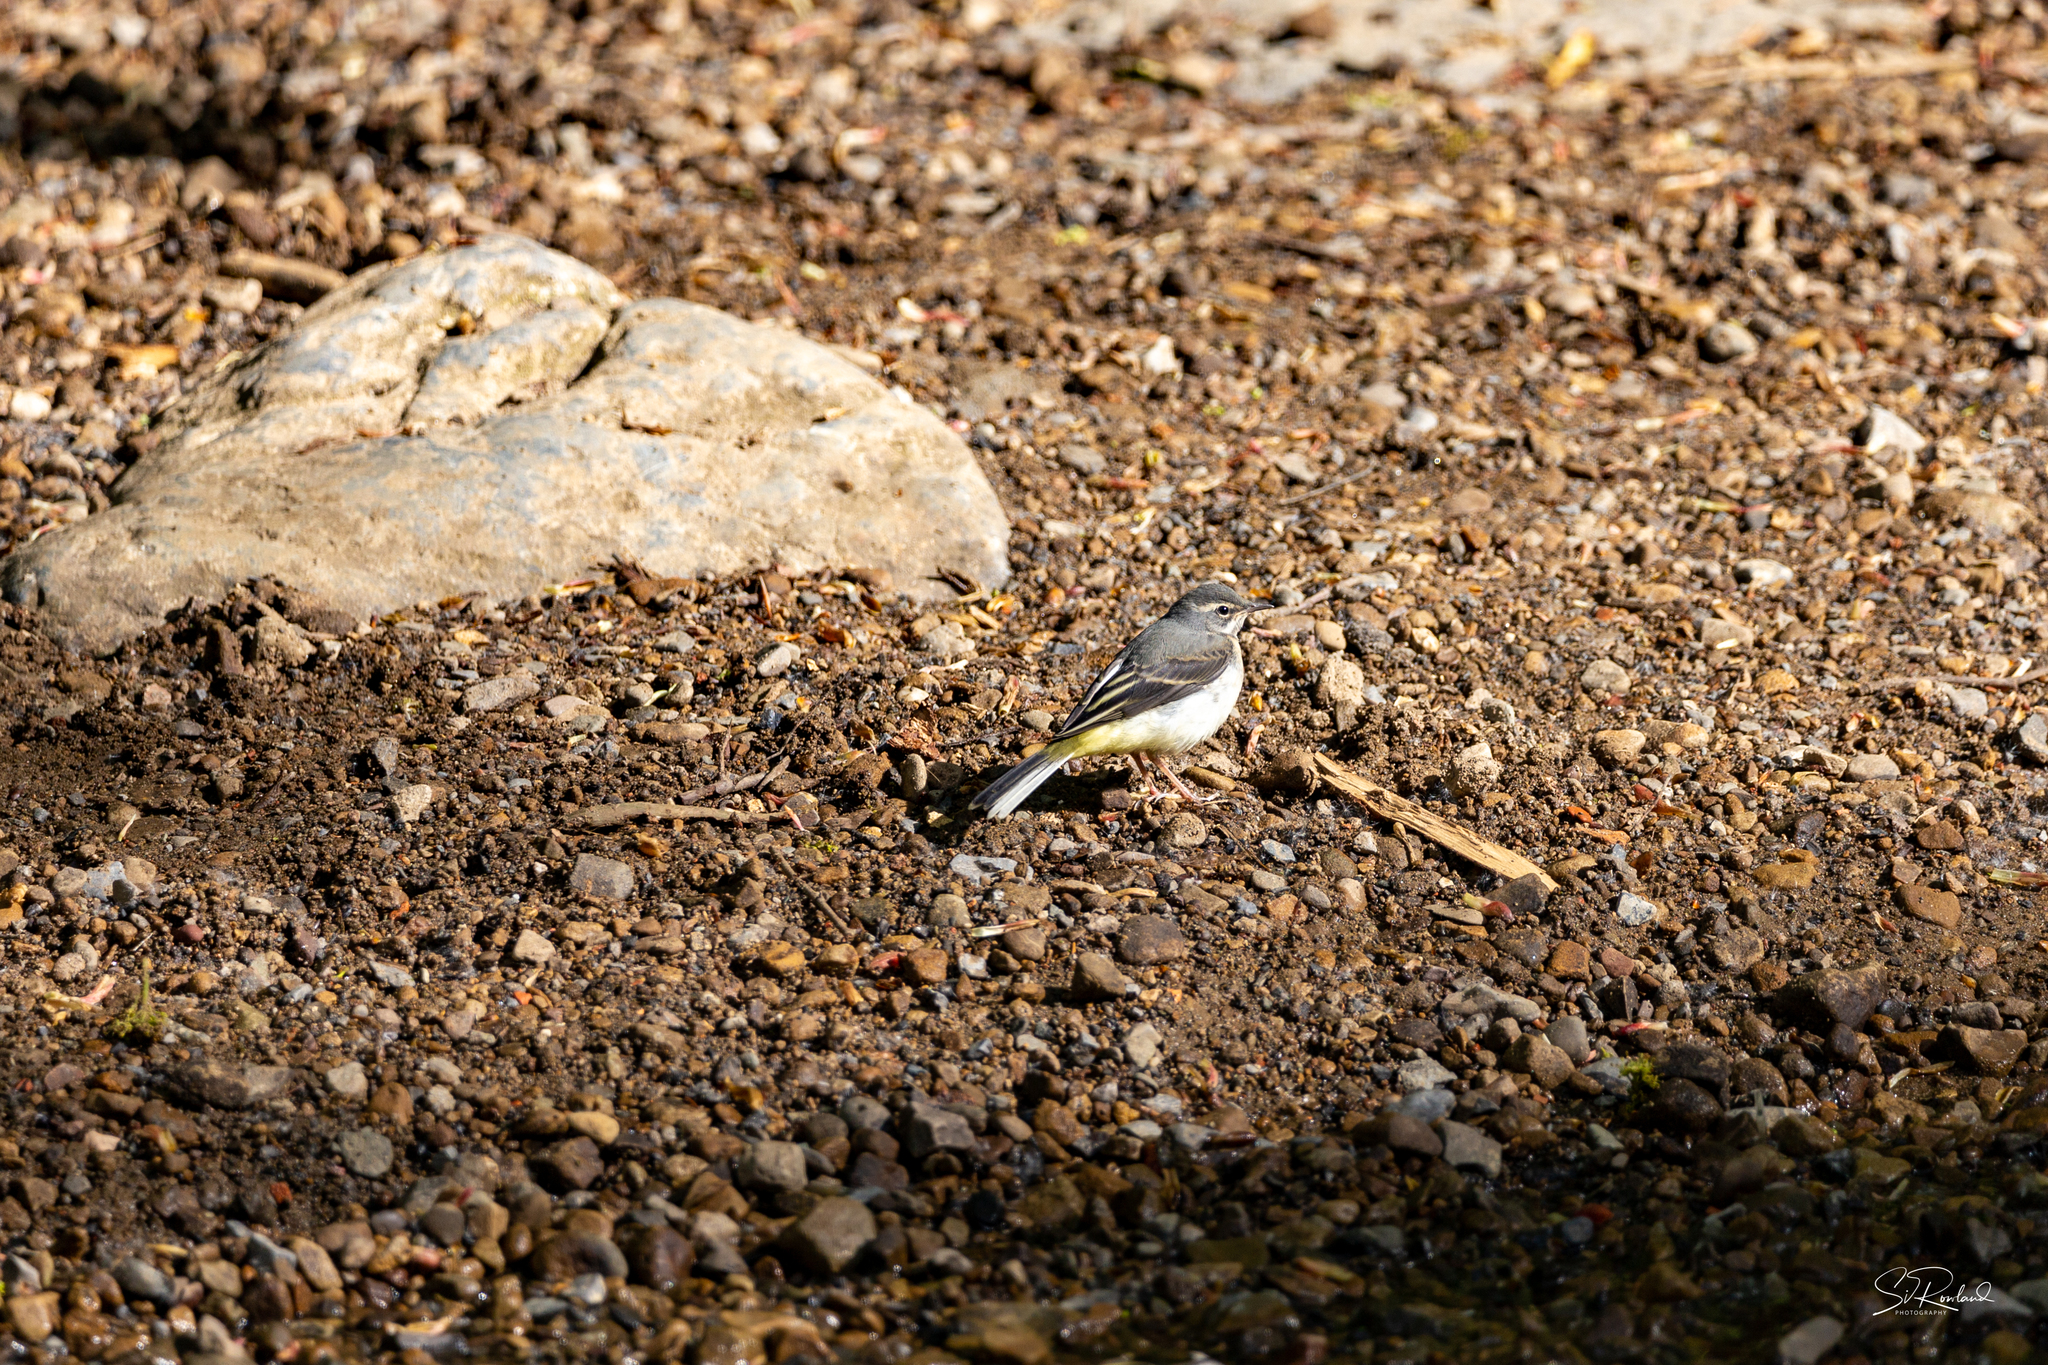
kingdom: Animalia
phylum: Chordata
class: Aves
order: Passeriformes
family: Motacillidae
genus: Motacilla
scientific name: Motacilla cinerea
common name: Grey wagtail
